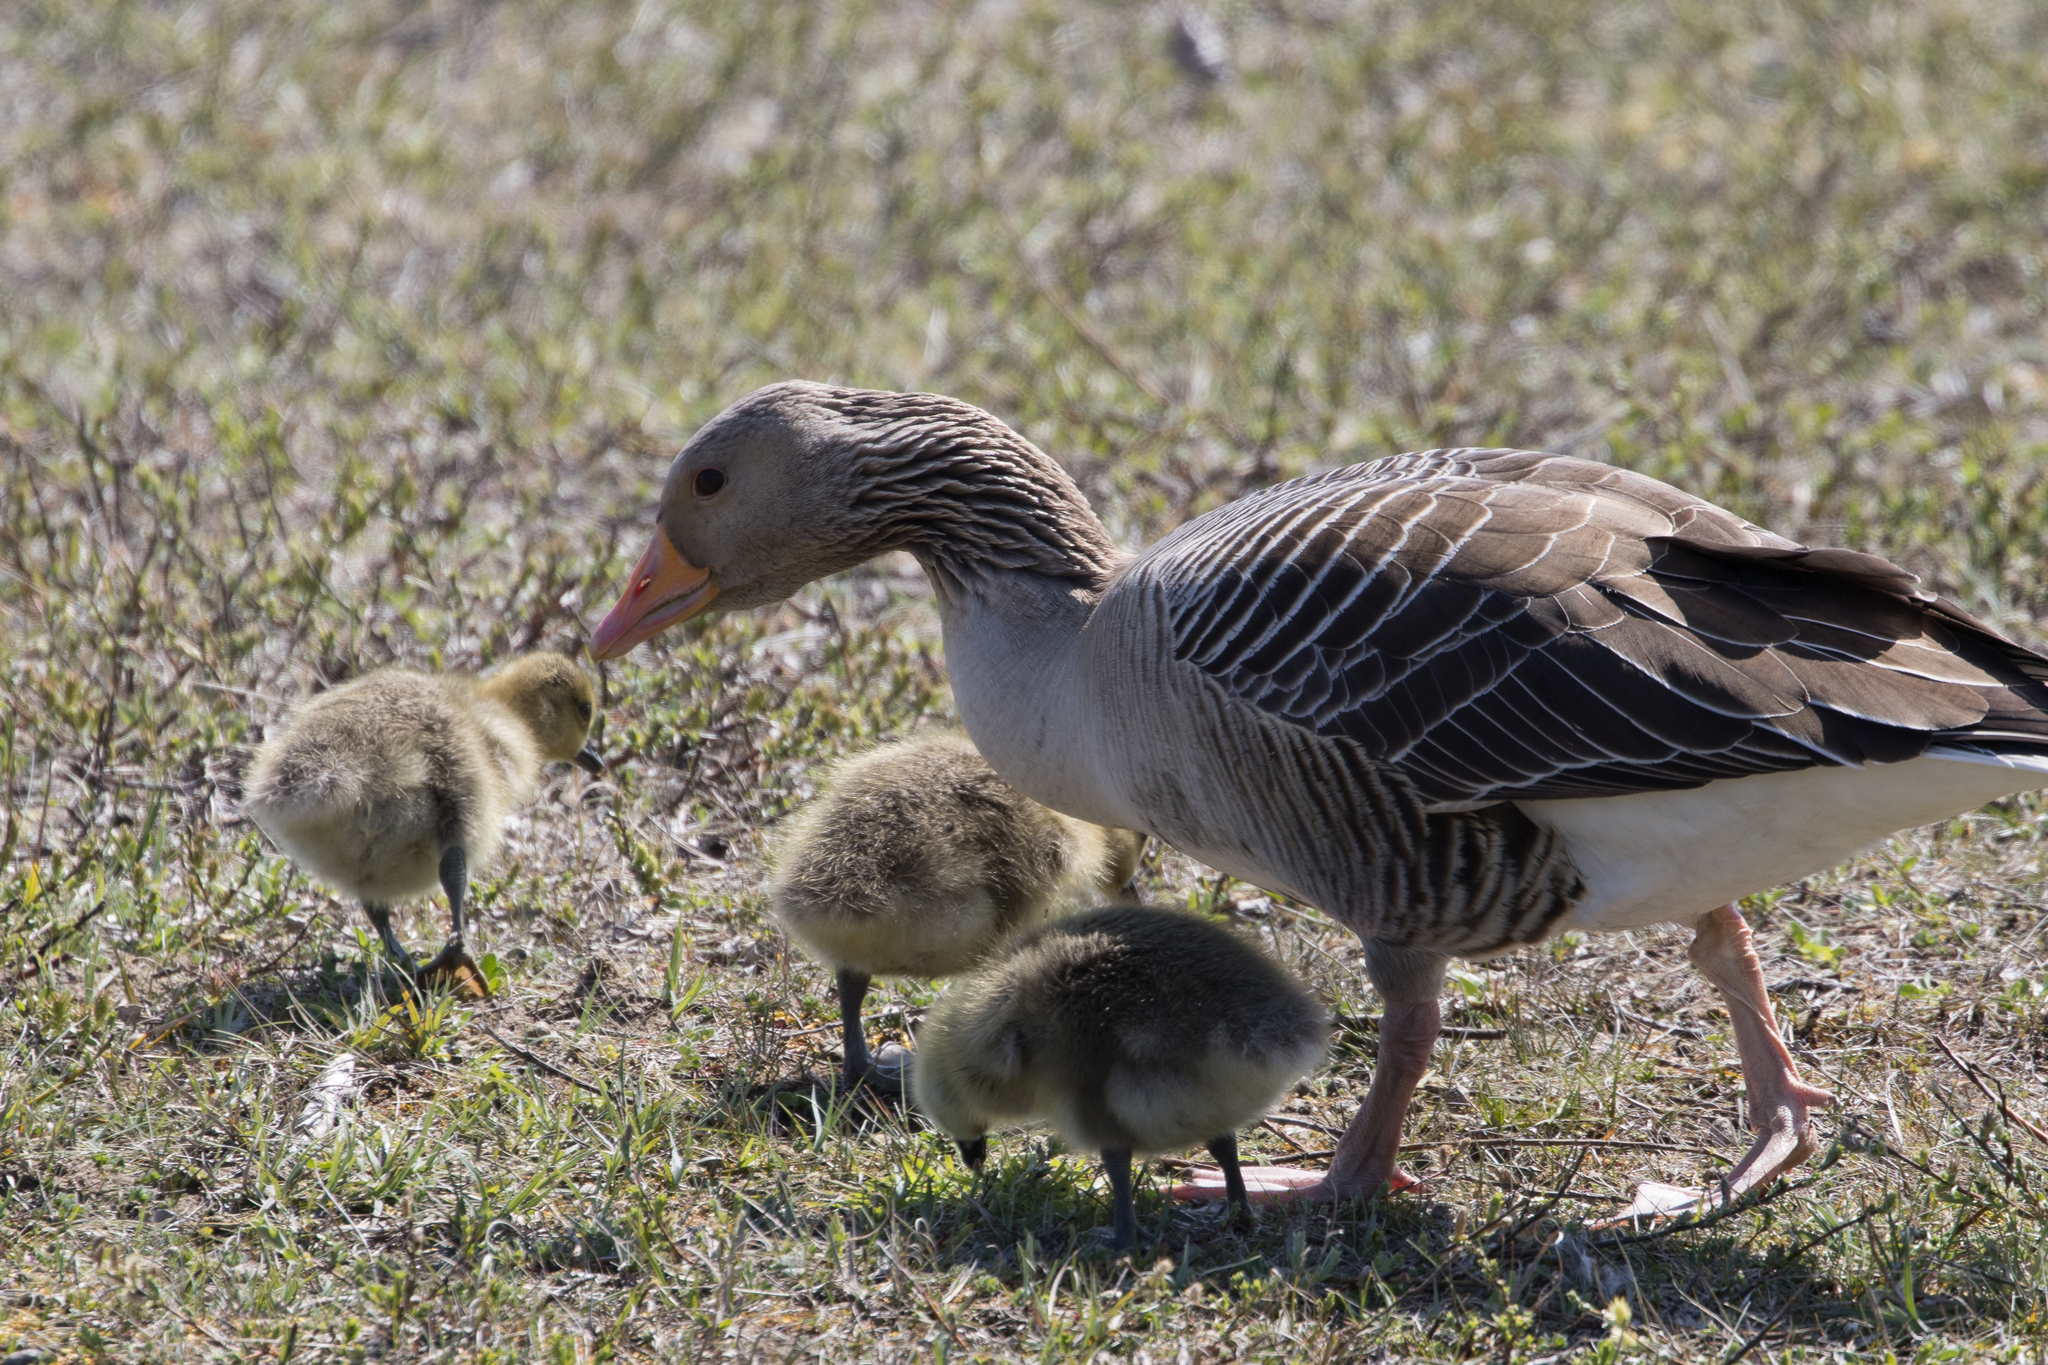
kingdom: Animalia
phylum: Chordata
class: Aves
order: Anseriformes
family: Anatidae
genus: Anser
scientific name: Anser anser
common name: Greylag goose
